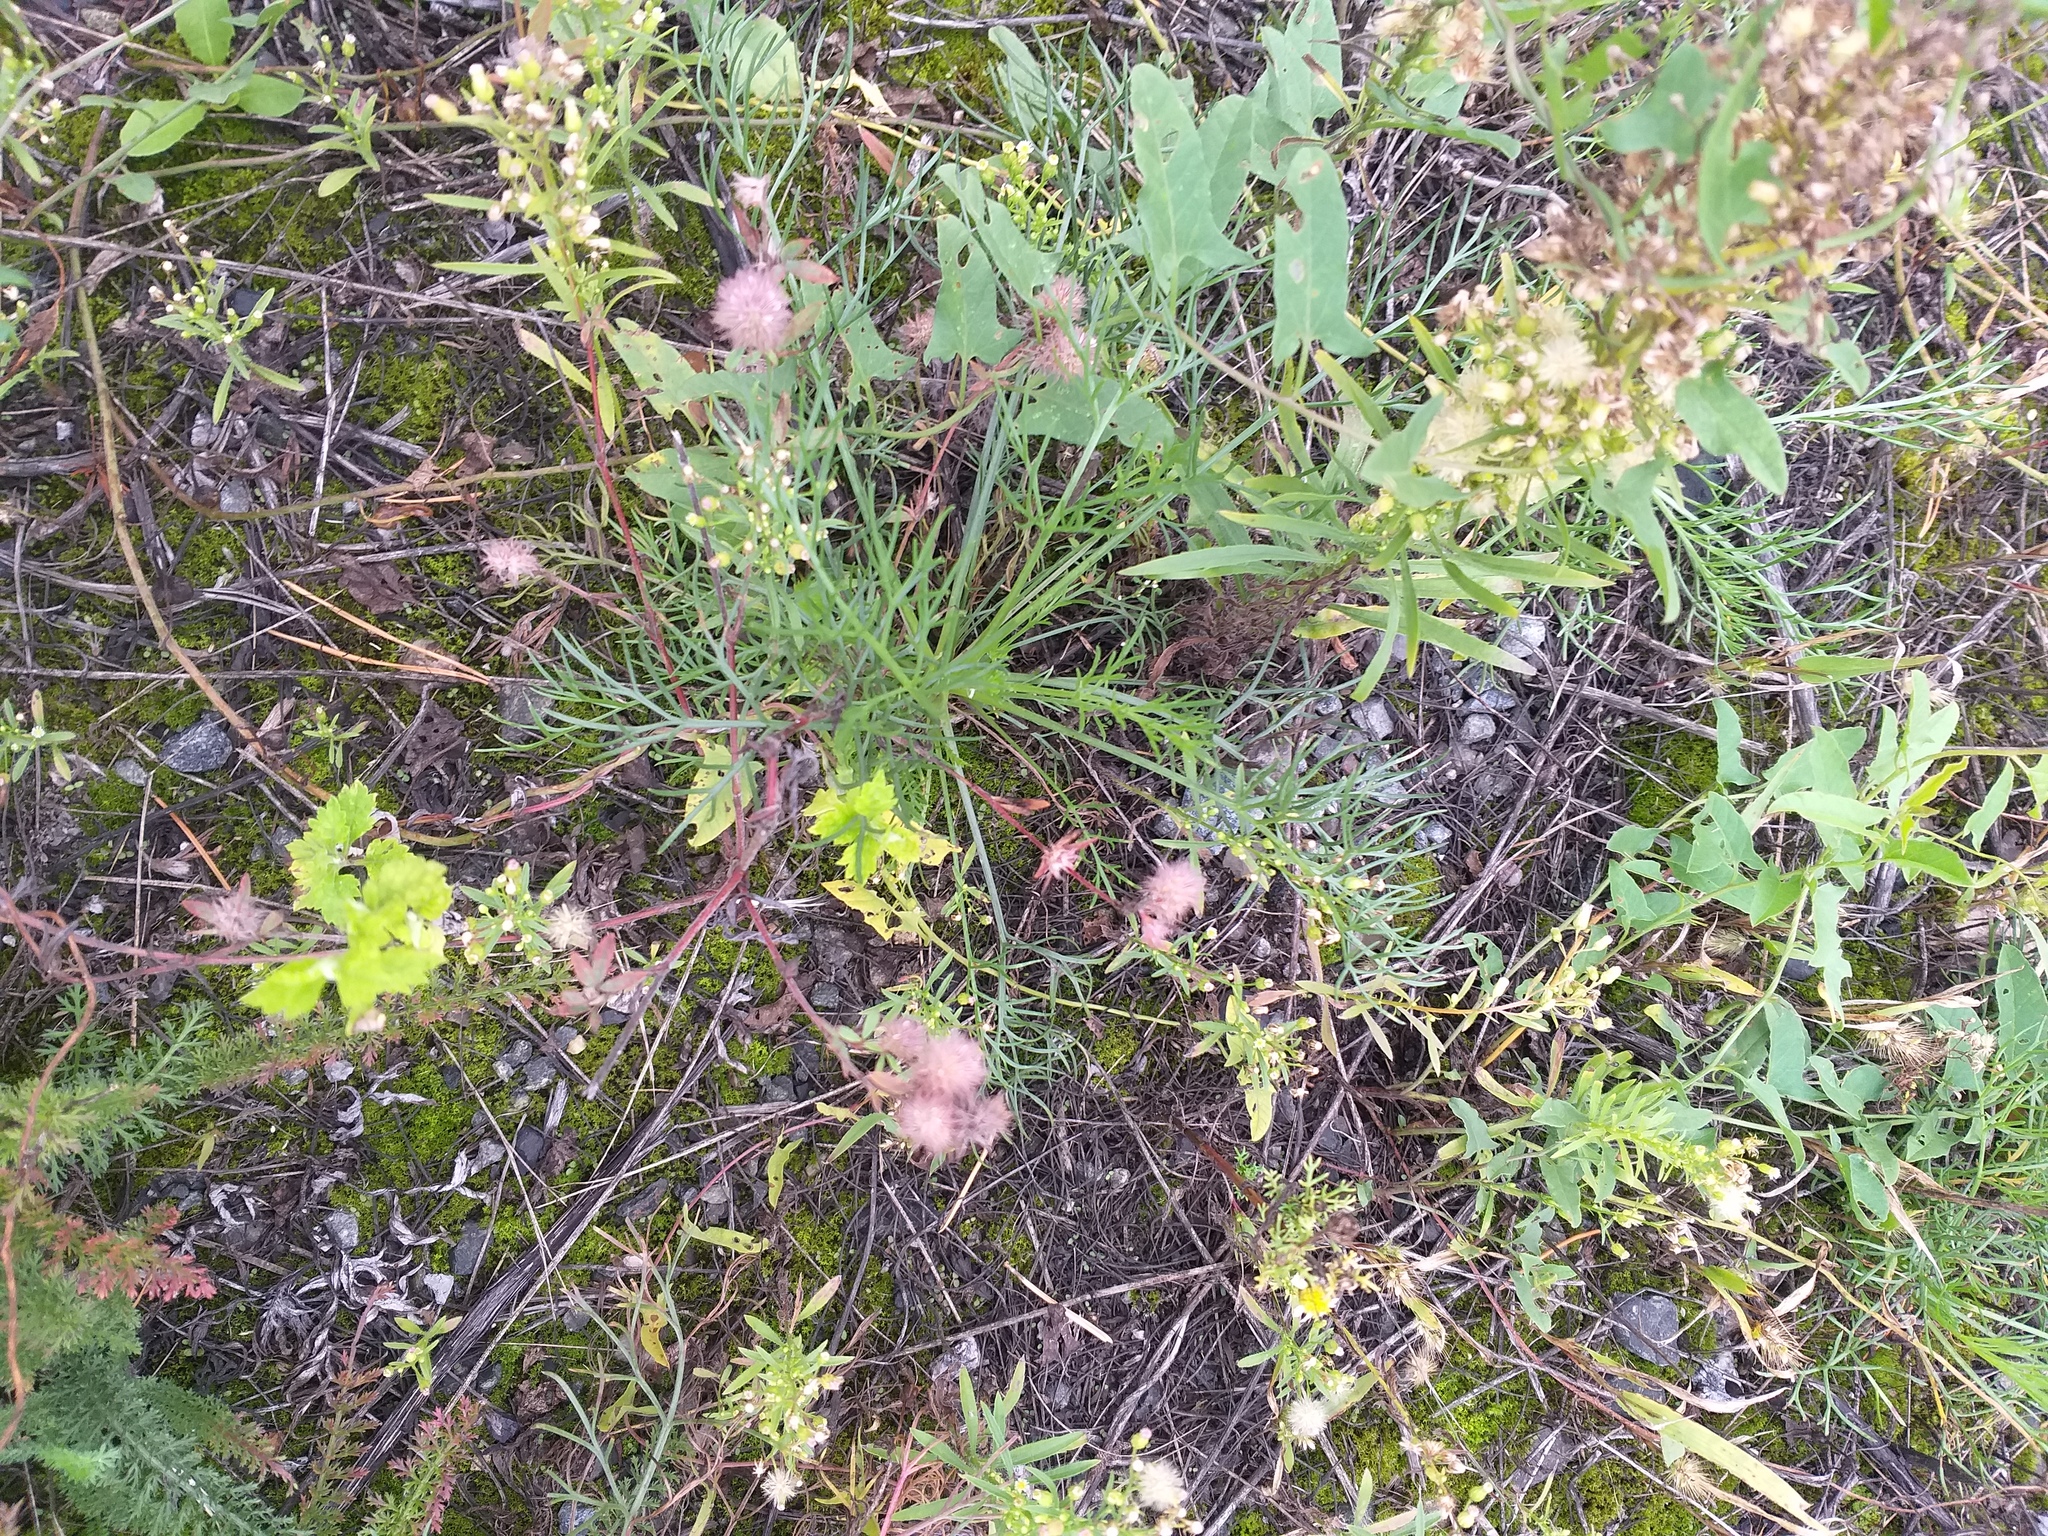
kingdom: Plantae
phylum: Tracheophyta
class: Magnoliopsida
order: Fabales
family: Fabaceae
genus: Trifolium
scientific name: Trifolium arvense
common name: Hare's-foot clover
